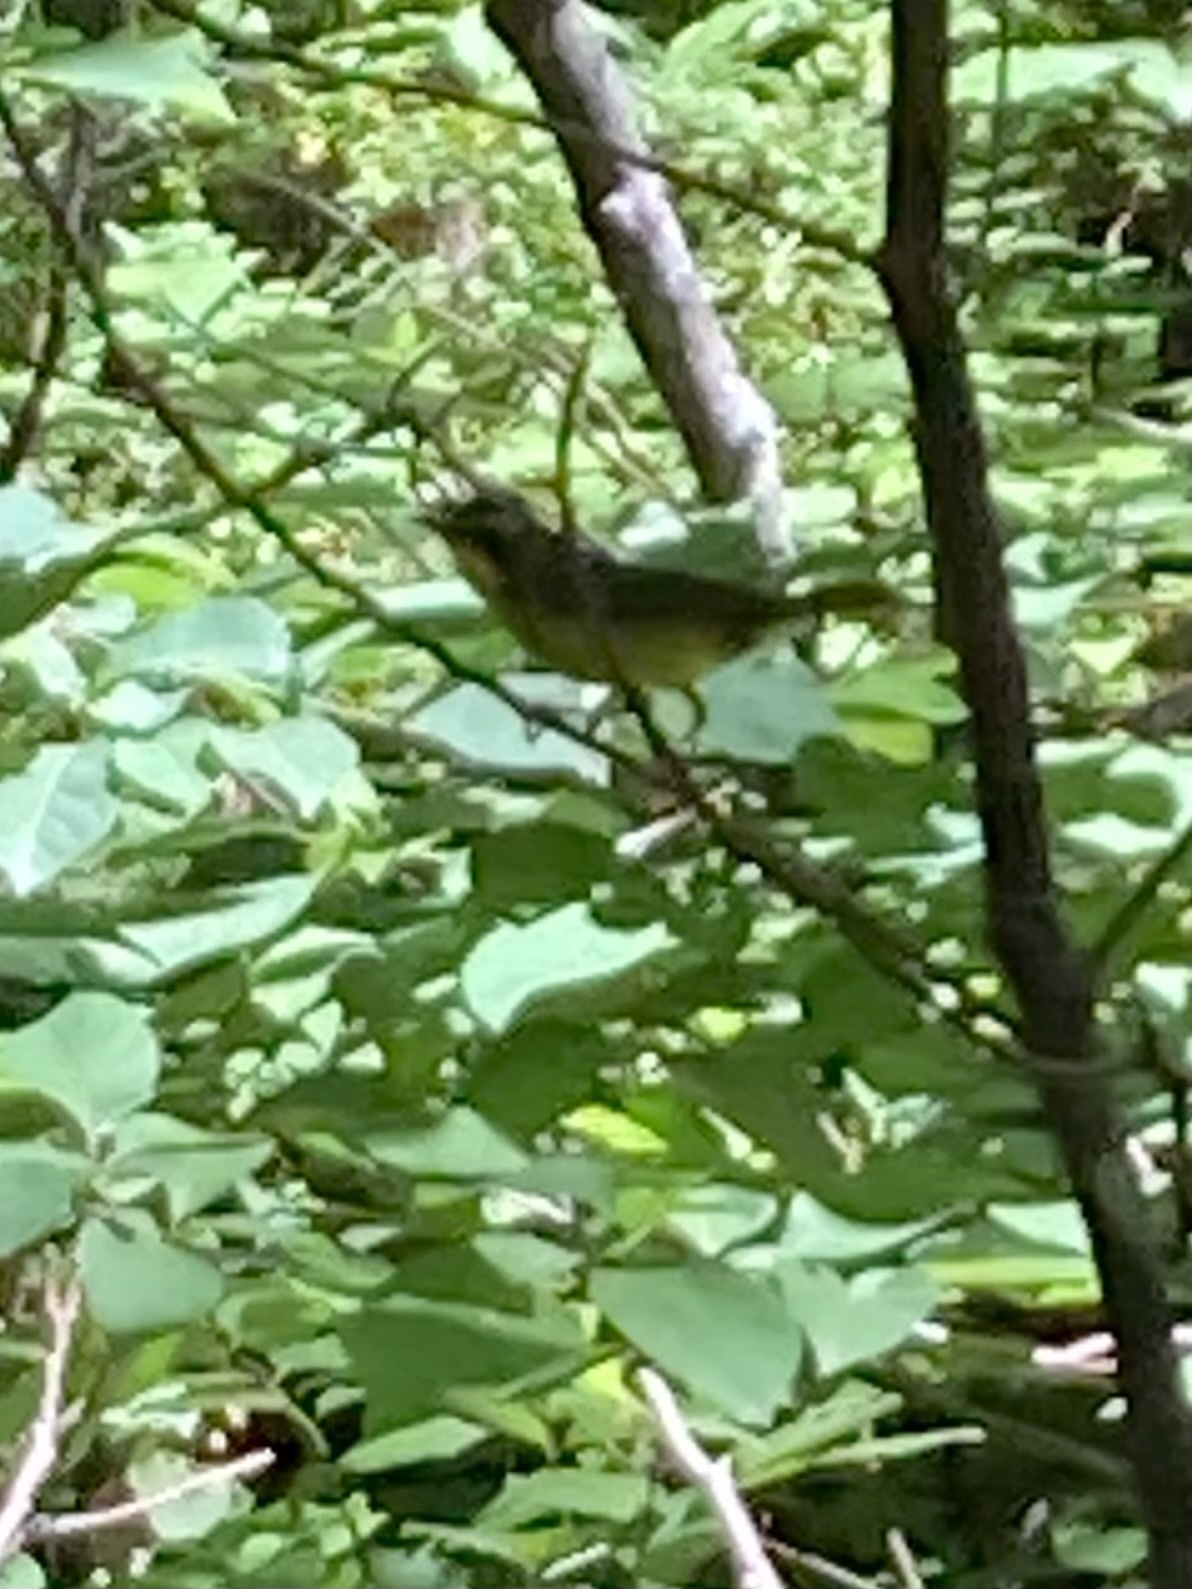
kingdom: Animalia
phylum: Chordata
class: Aves
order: Passeriformes
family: Parulidae
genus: Geothlypis
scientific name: Geothlypis formosa
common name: Kentucky warbler
